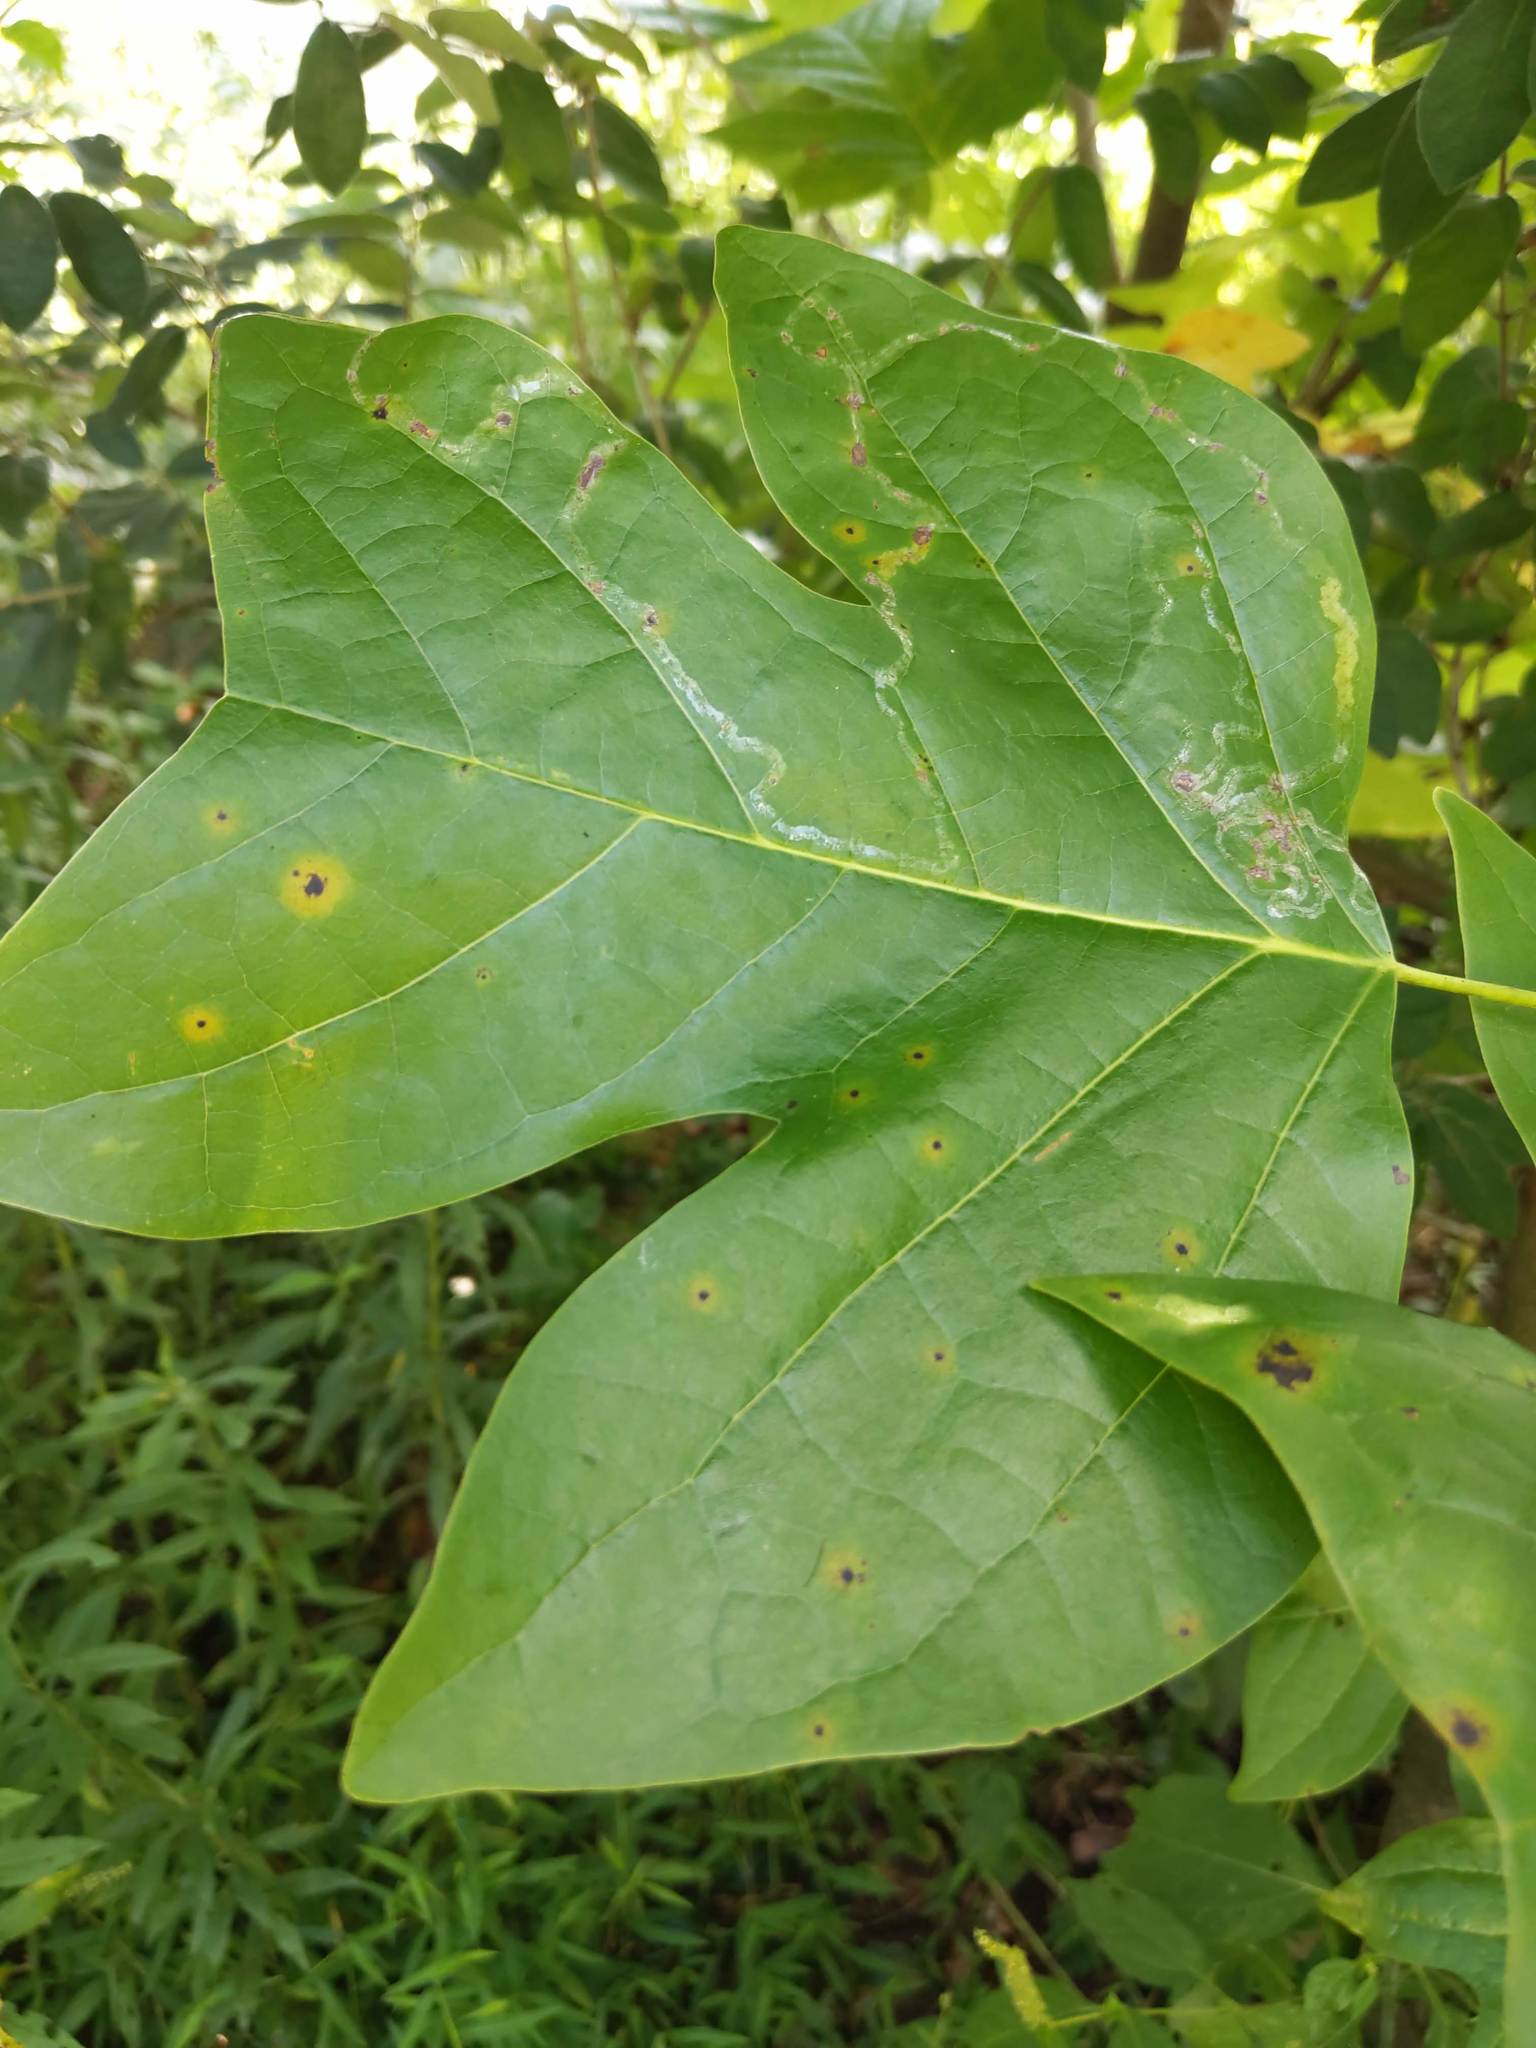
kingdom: Animalia
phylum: Arthropoda
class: Insecta
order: Lepidoptera
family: Gracillariidae
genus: Phyllocnistis
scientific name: Phyllocnistis liriodendronella
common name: Tulip tree leaf miner
